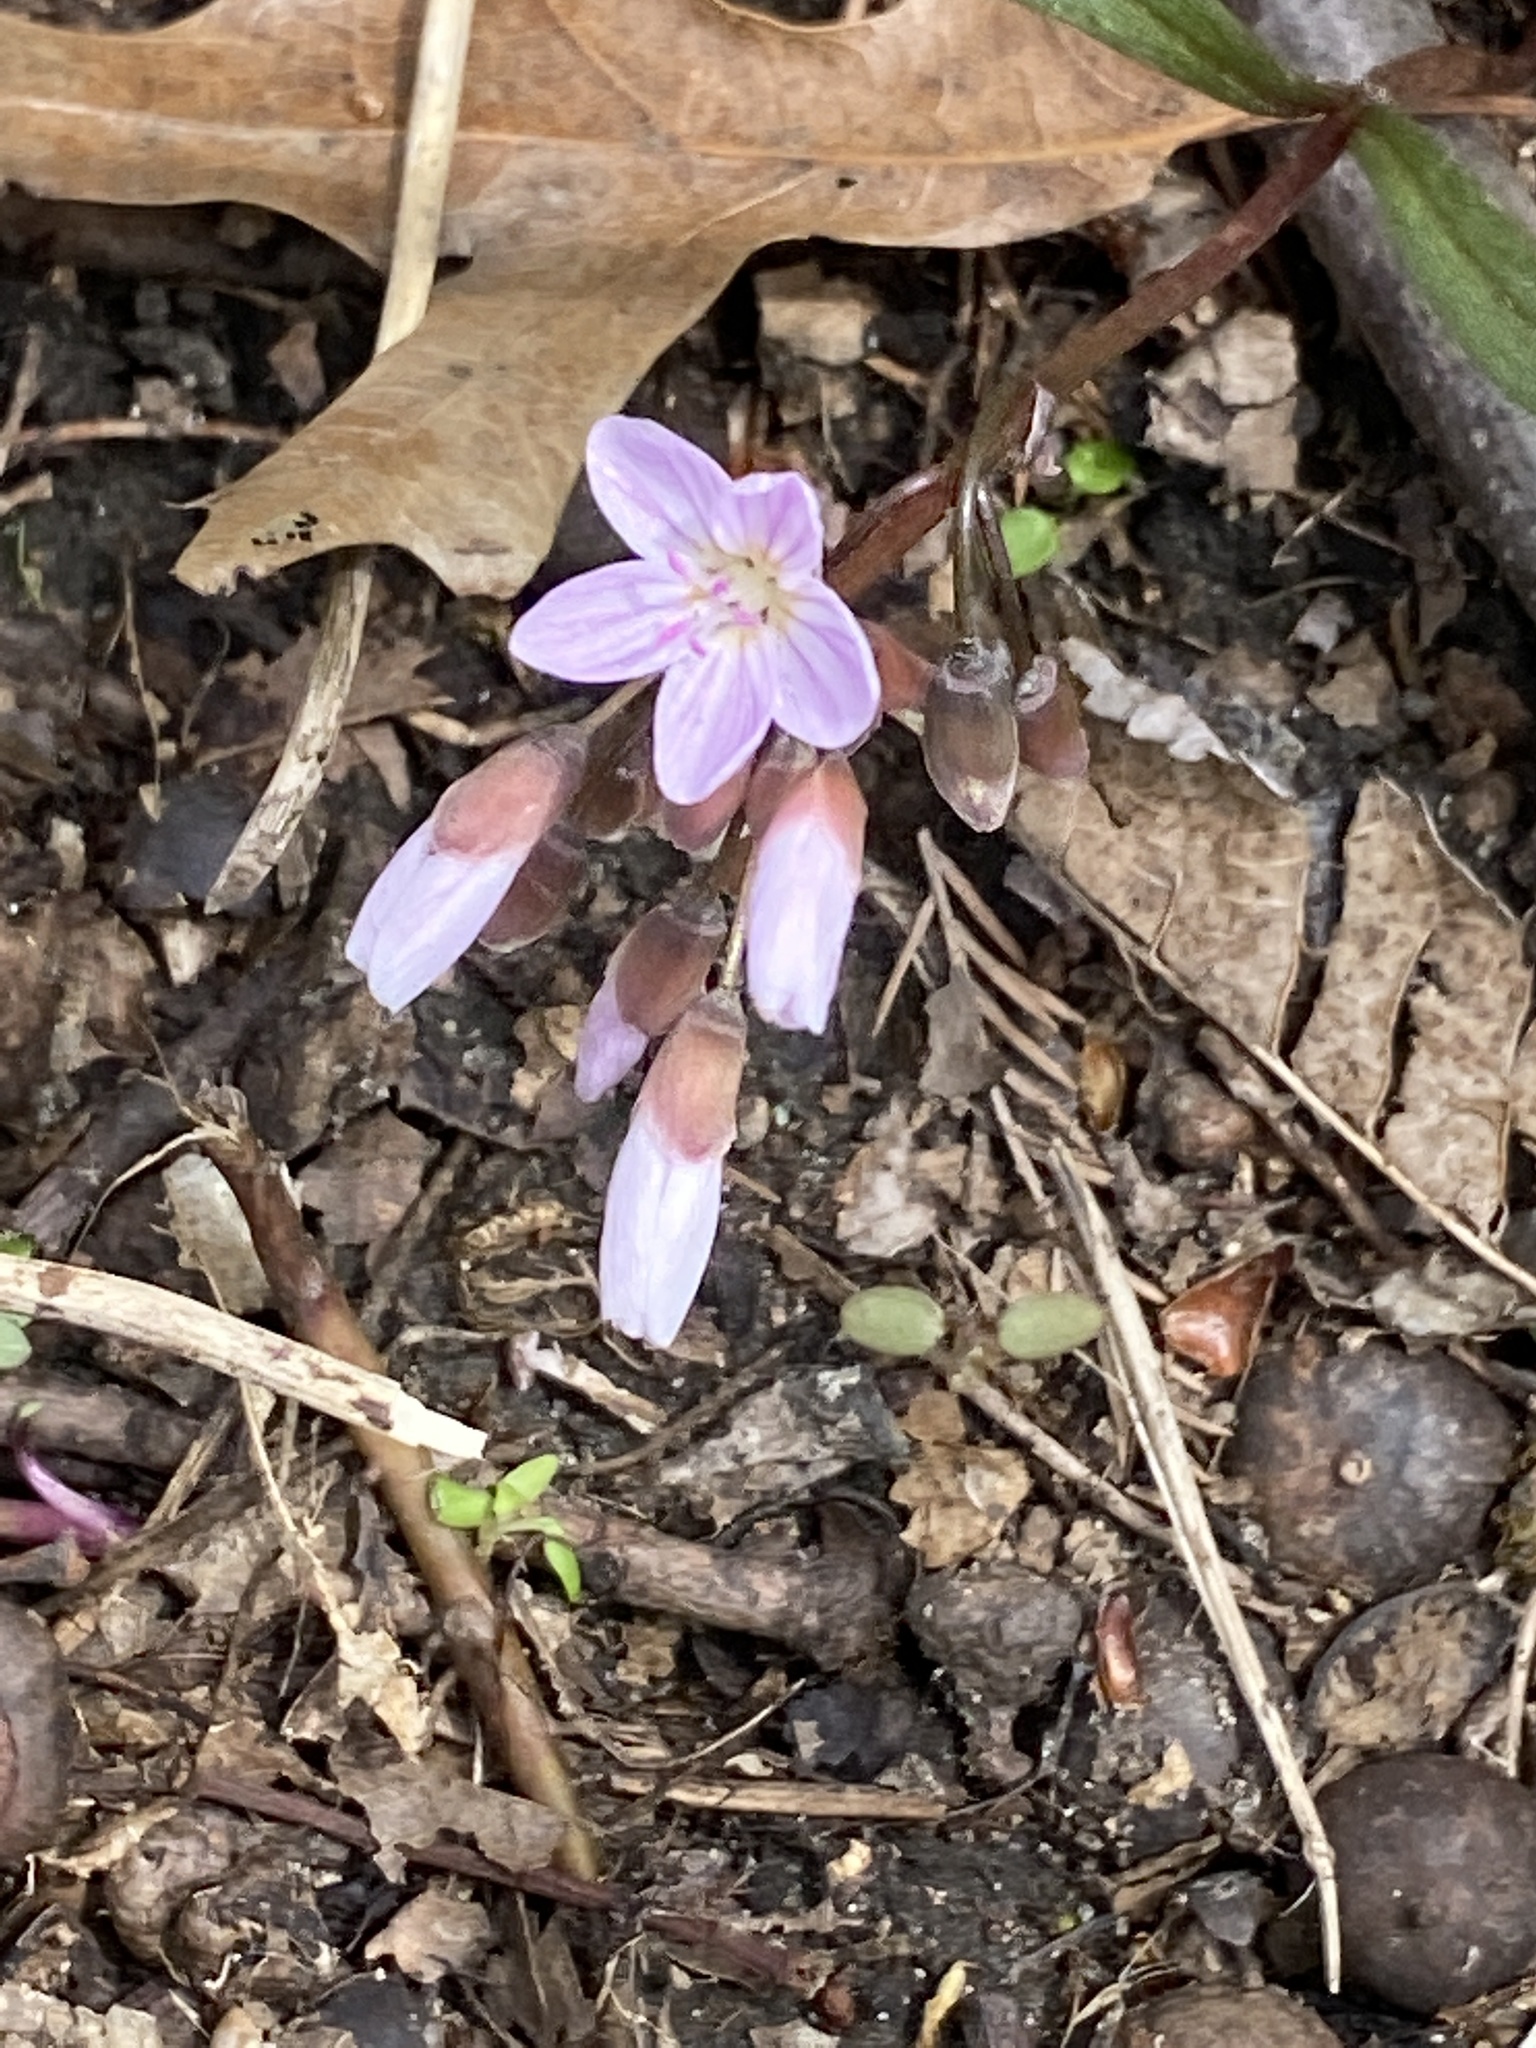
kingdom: Plantae
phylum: Tracheophyta
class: Magnoliopsida
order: Caryophyllales
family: Montiaceae
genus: Claytonia
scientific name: Claytonia virginica
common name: Virginia springbeauty
